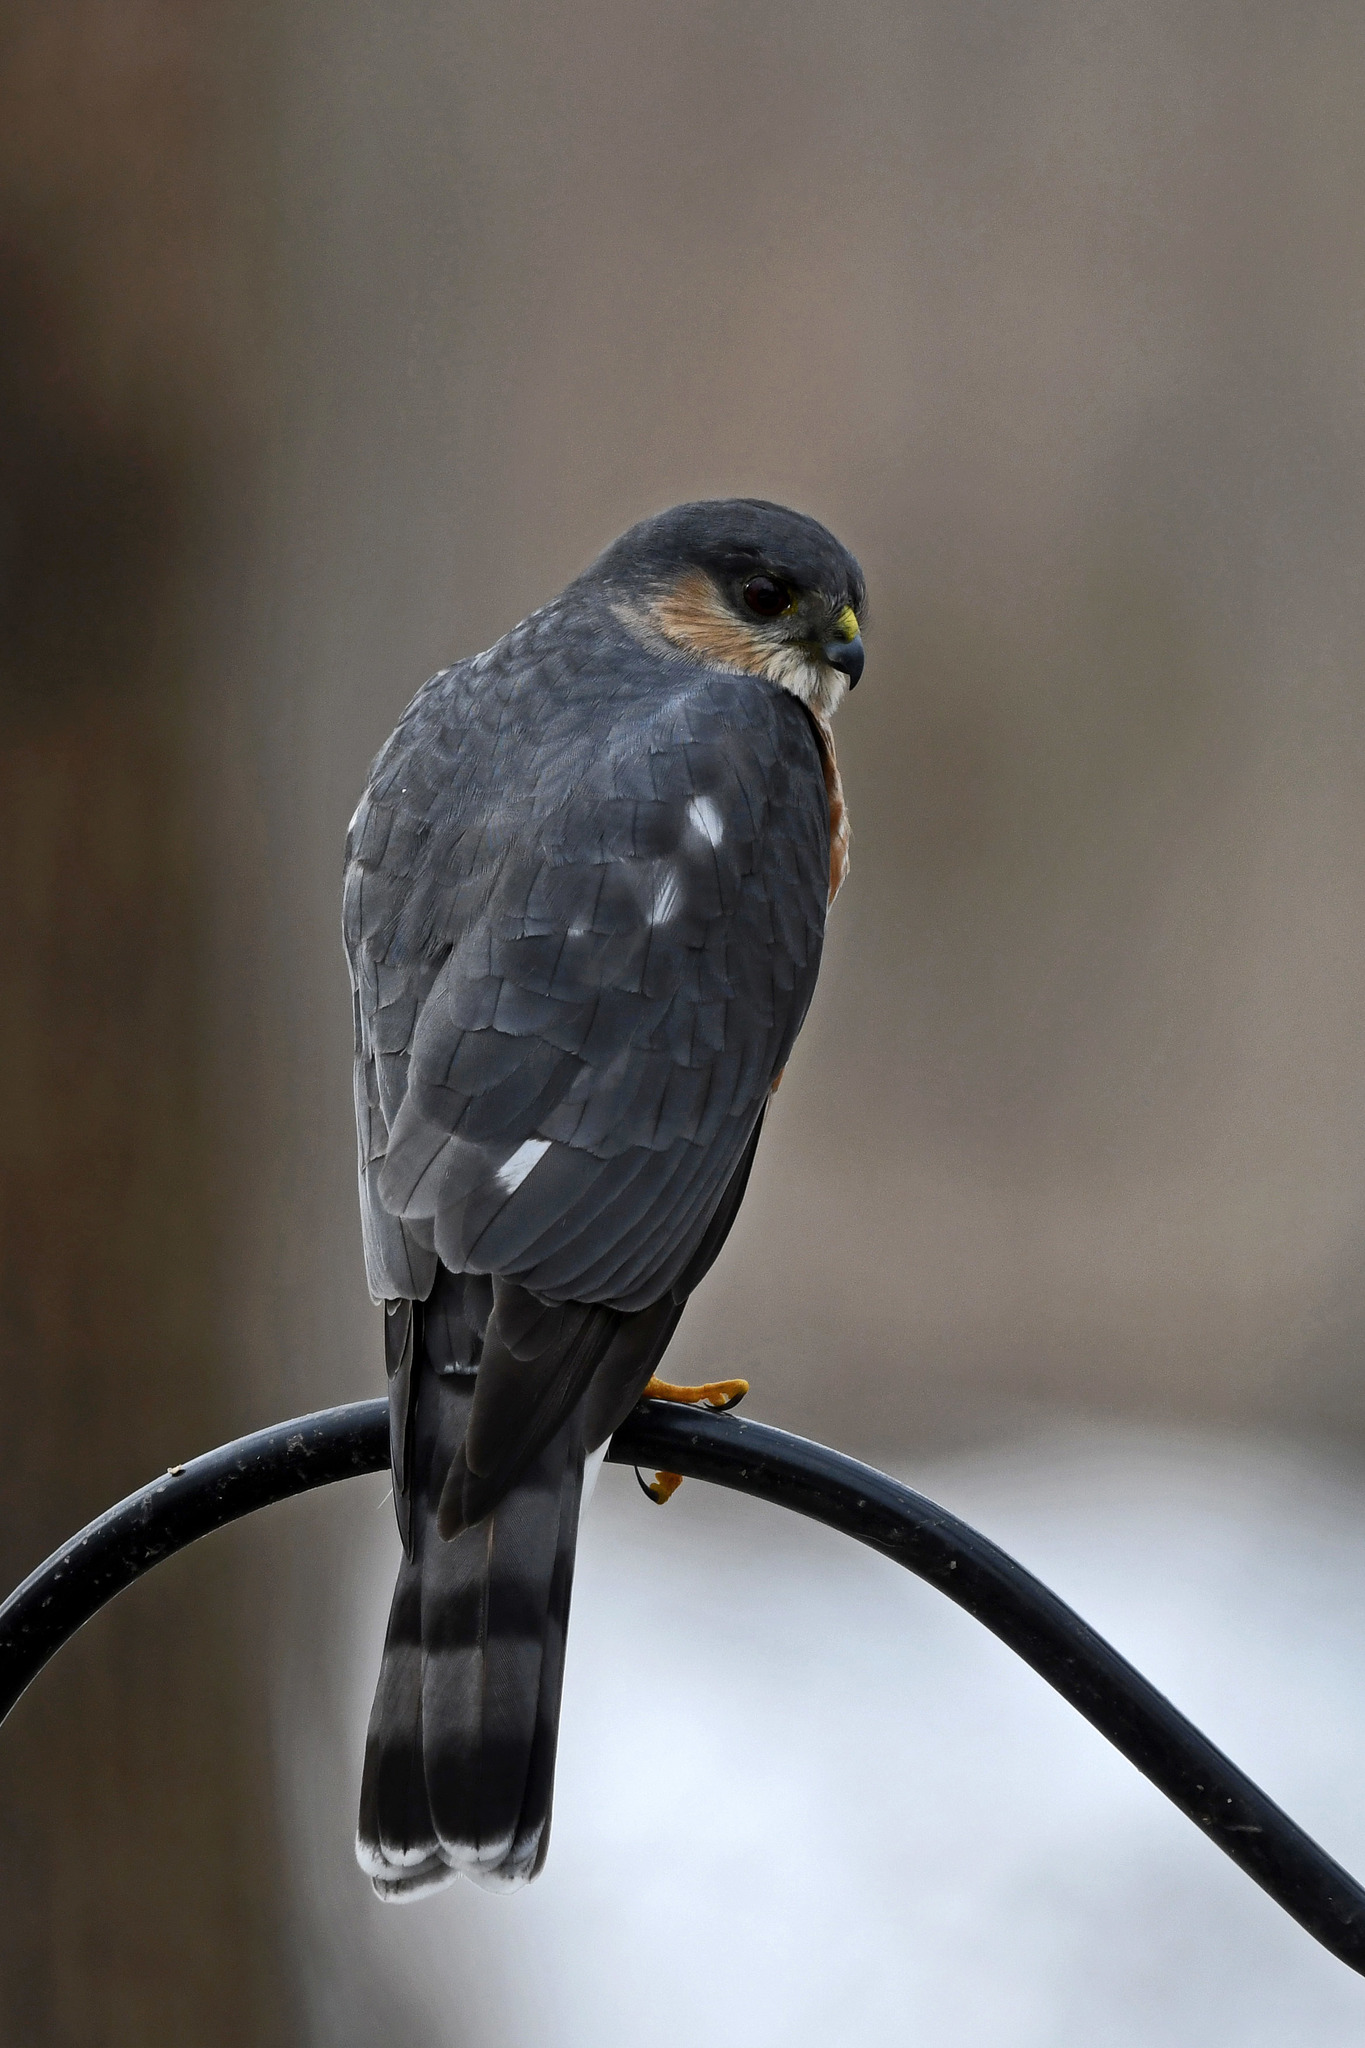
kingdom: Animalia
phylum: Chordata
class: Aves
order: Accipitriformes
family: Accipitridae
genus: Accipiter
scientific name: Accipiter striatus
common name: Sharp-shinned hawk
